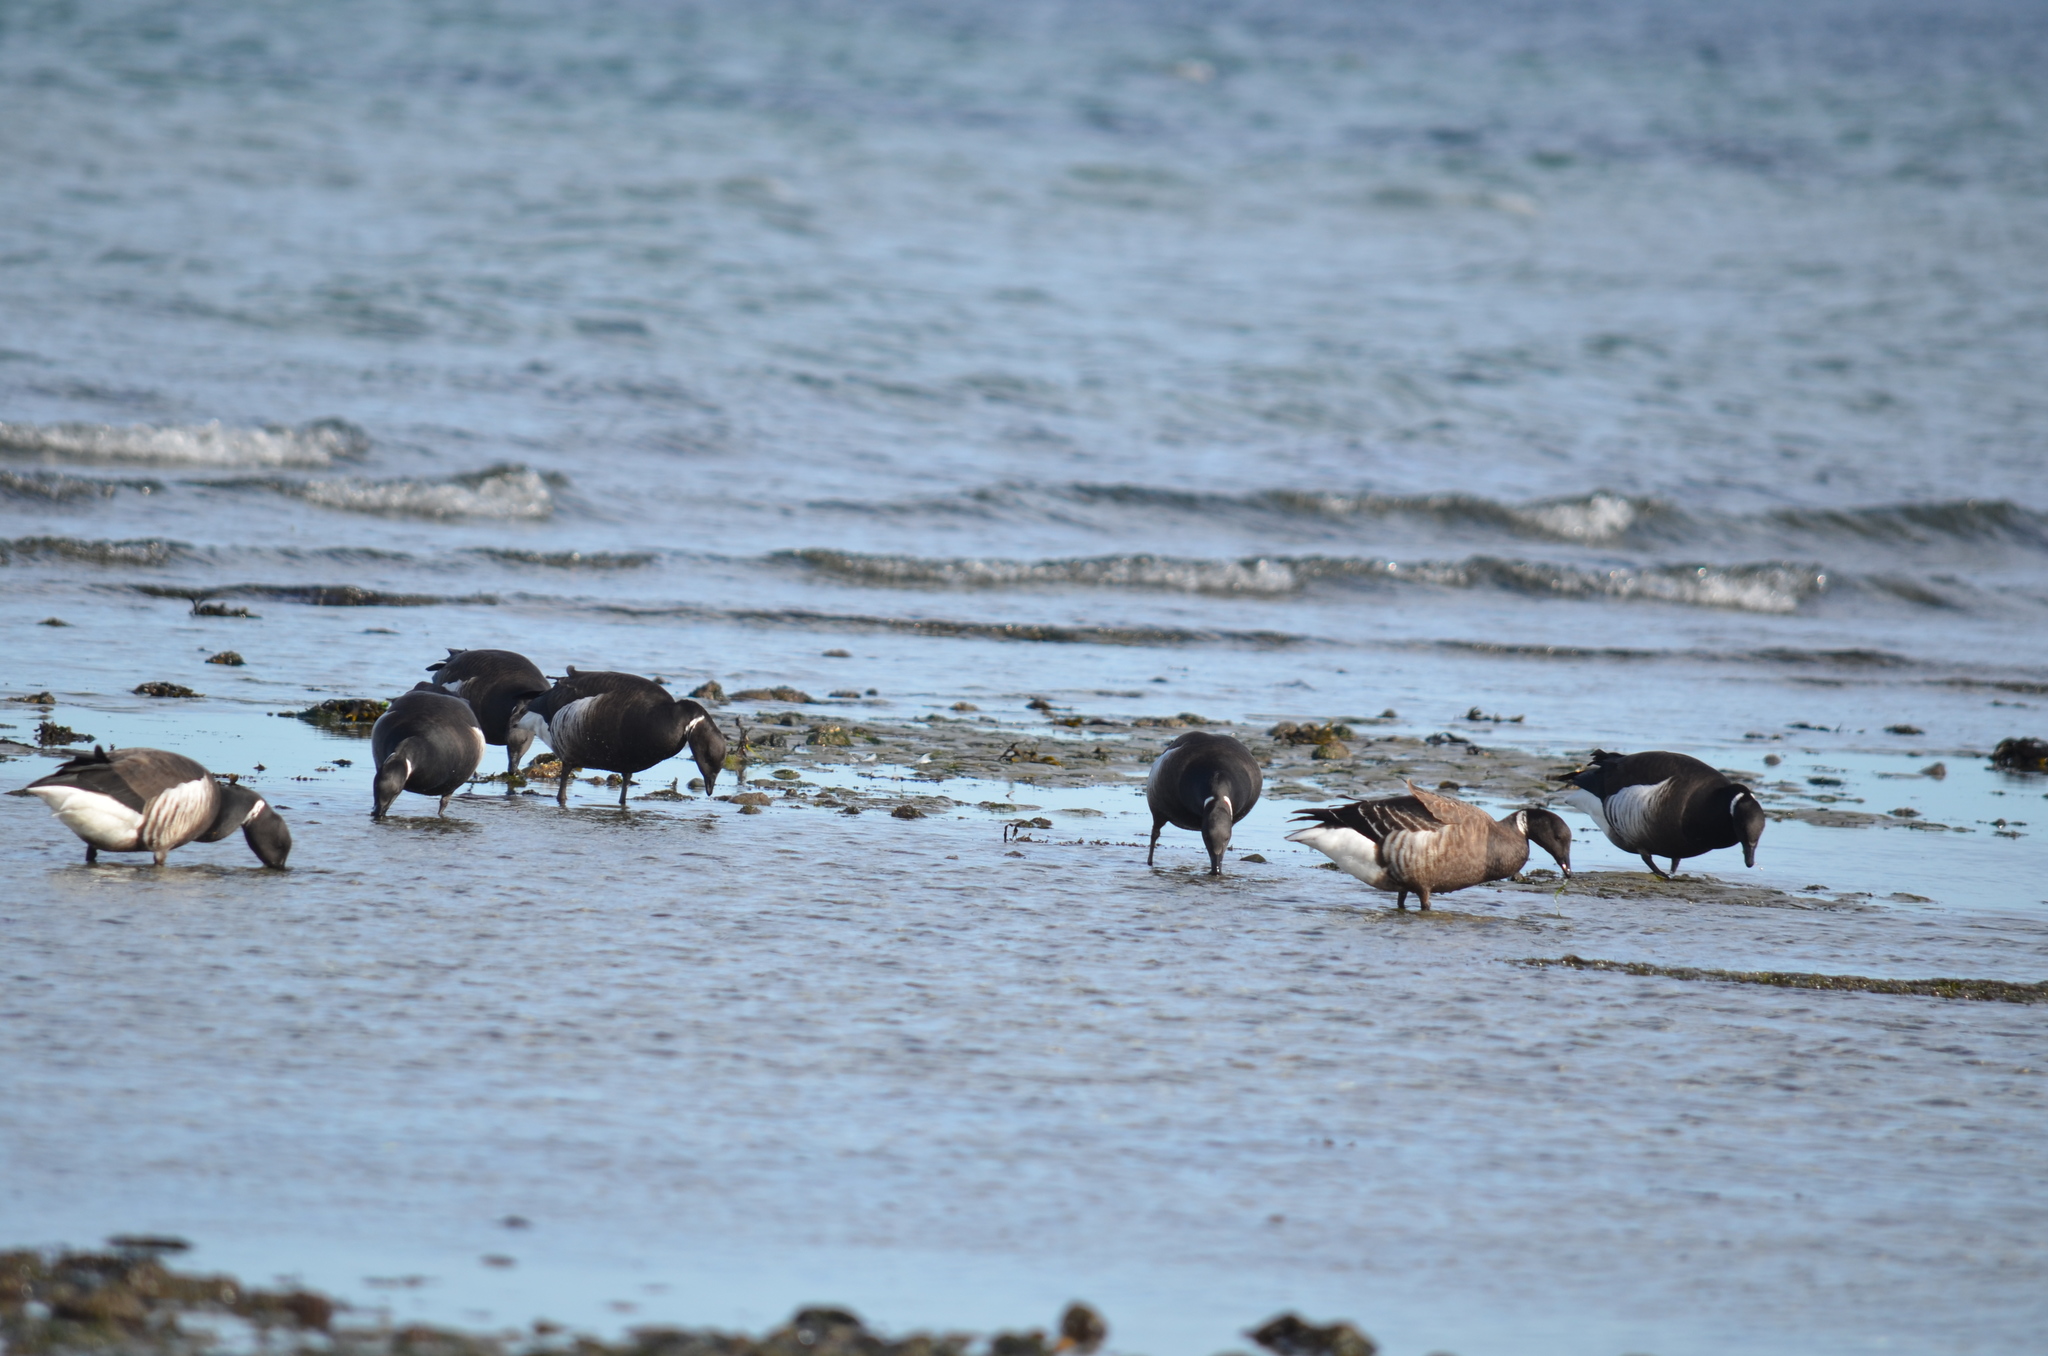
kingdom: Animalia
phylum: Chordata
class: Aves
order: Anseriformes
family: Anatidae
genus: Branta
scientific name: Branta bernicla
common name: Brant goose
